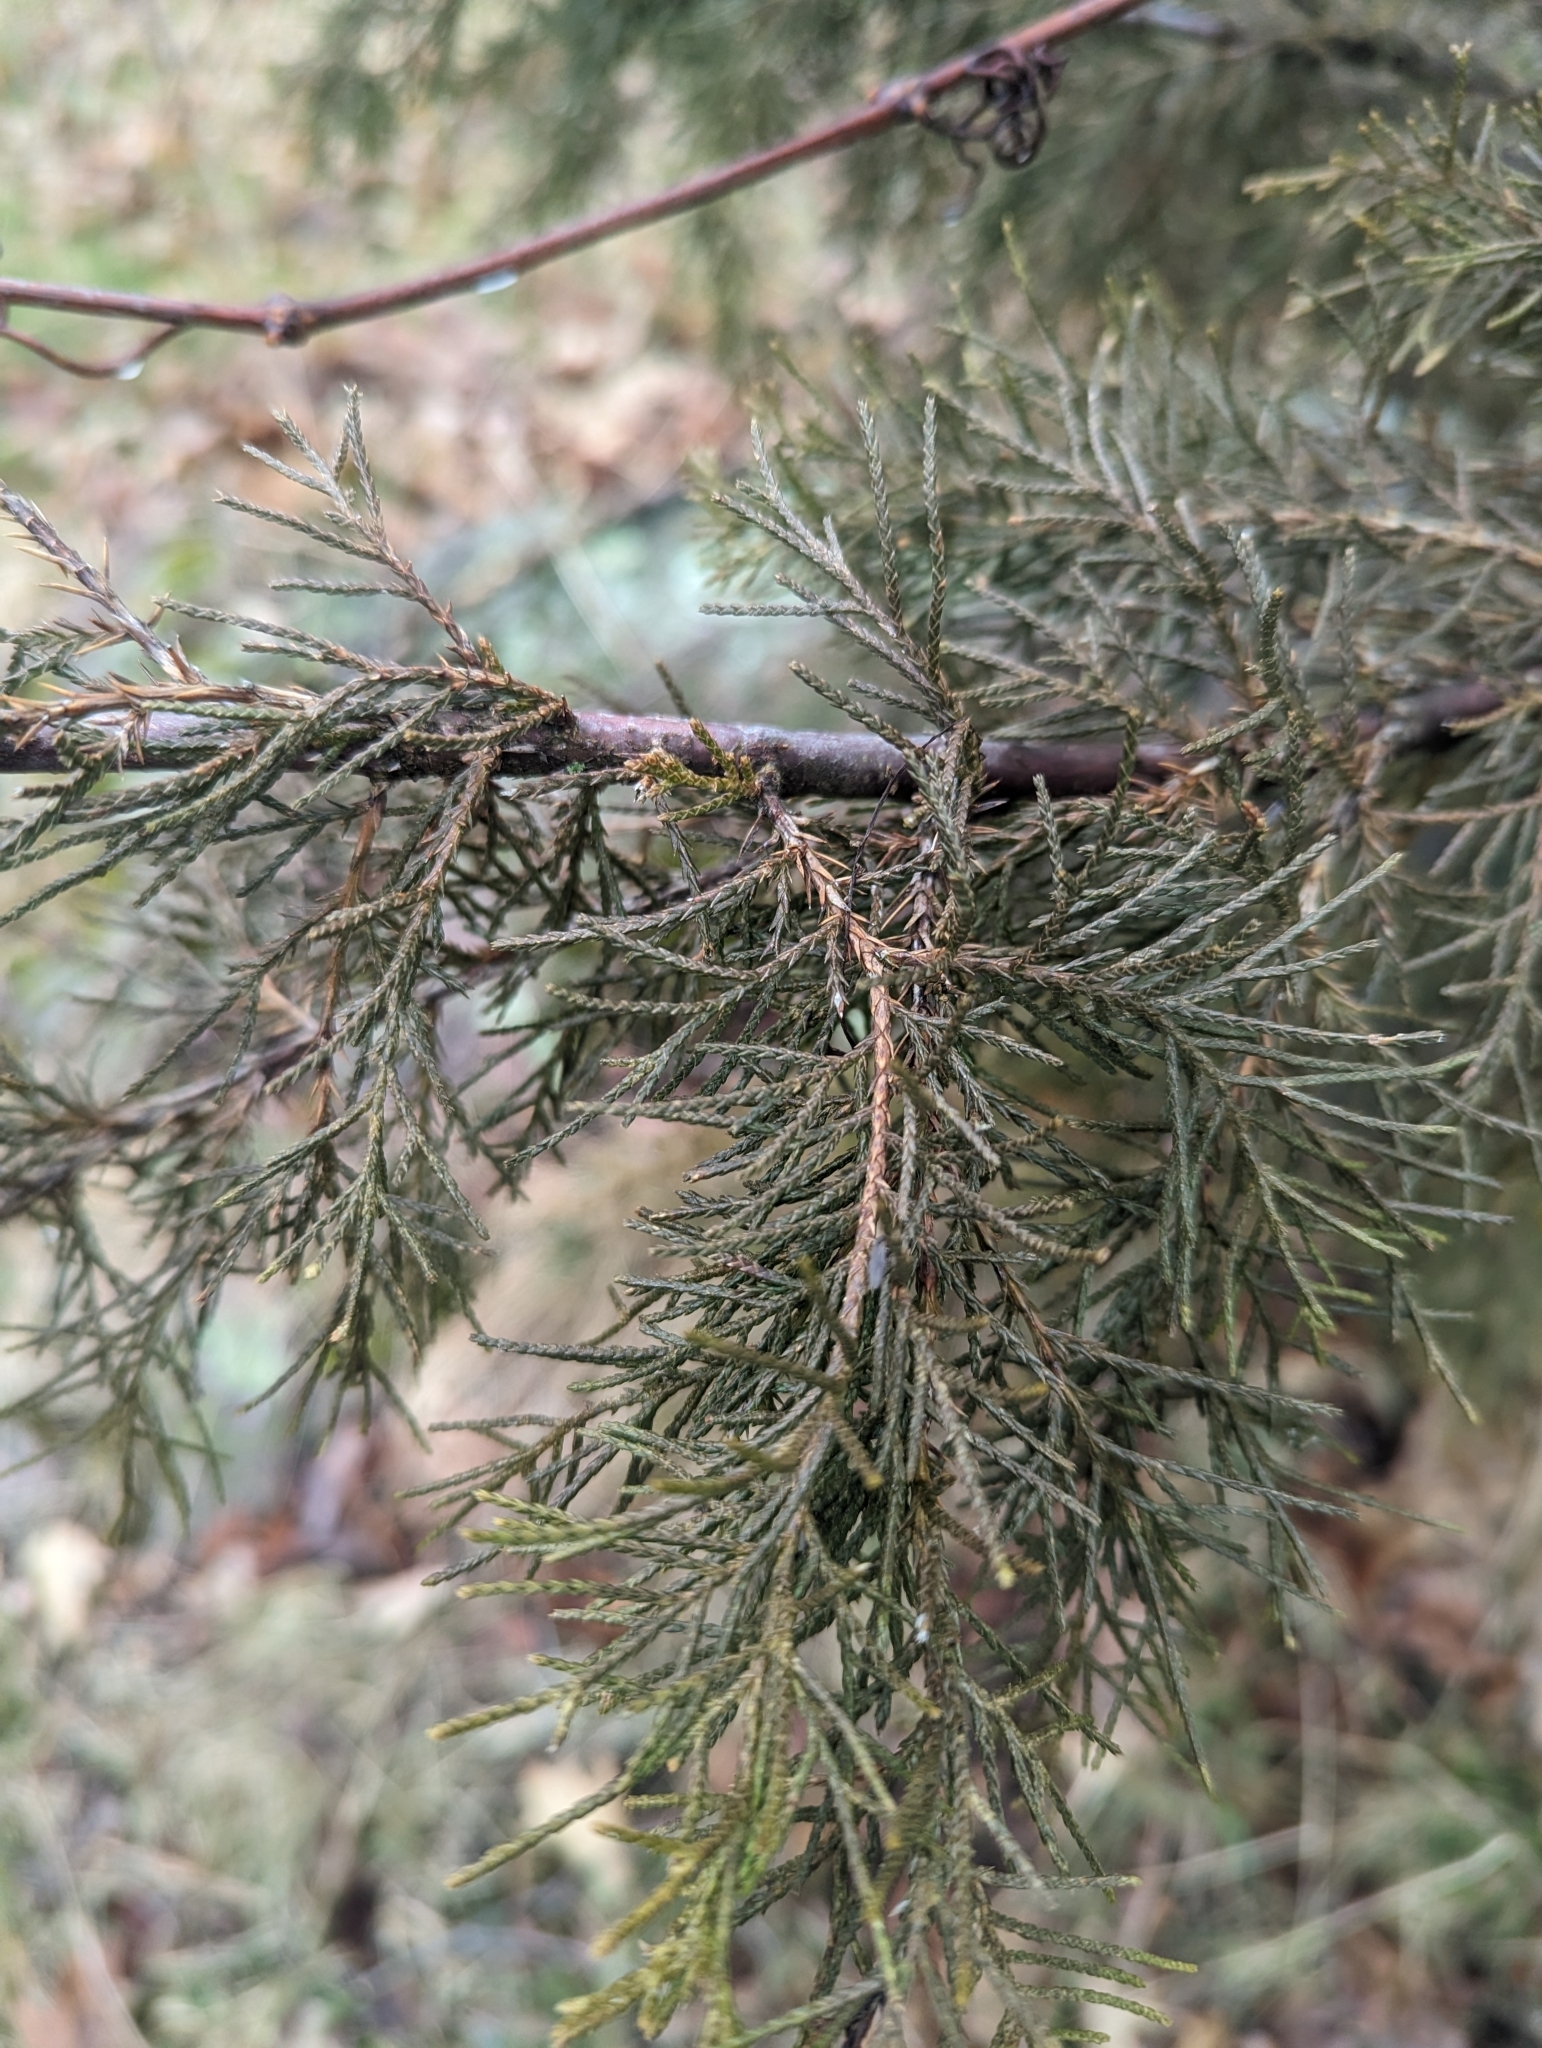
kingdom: Plantae
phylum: Tracheophyta
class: Pinopsida
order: Pinales
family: Cupressaceae
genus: Juniperus
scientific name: Juniperus virginiana
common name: Red juniper
